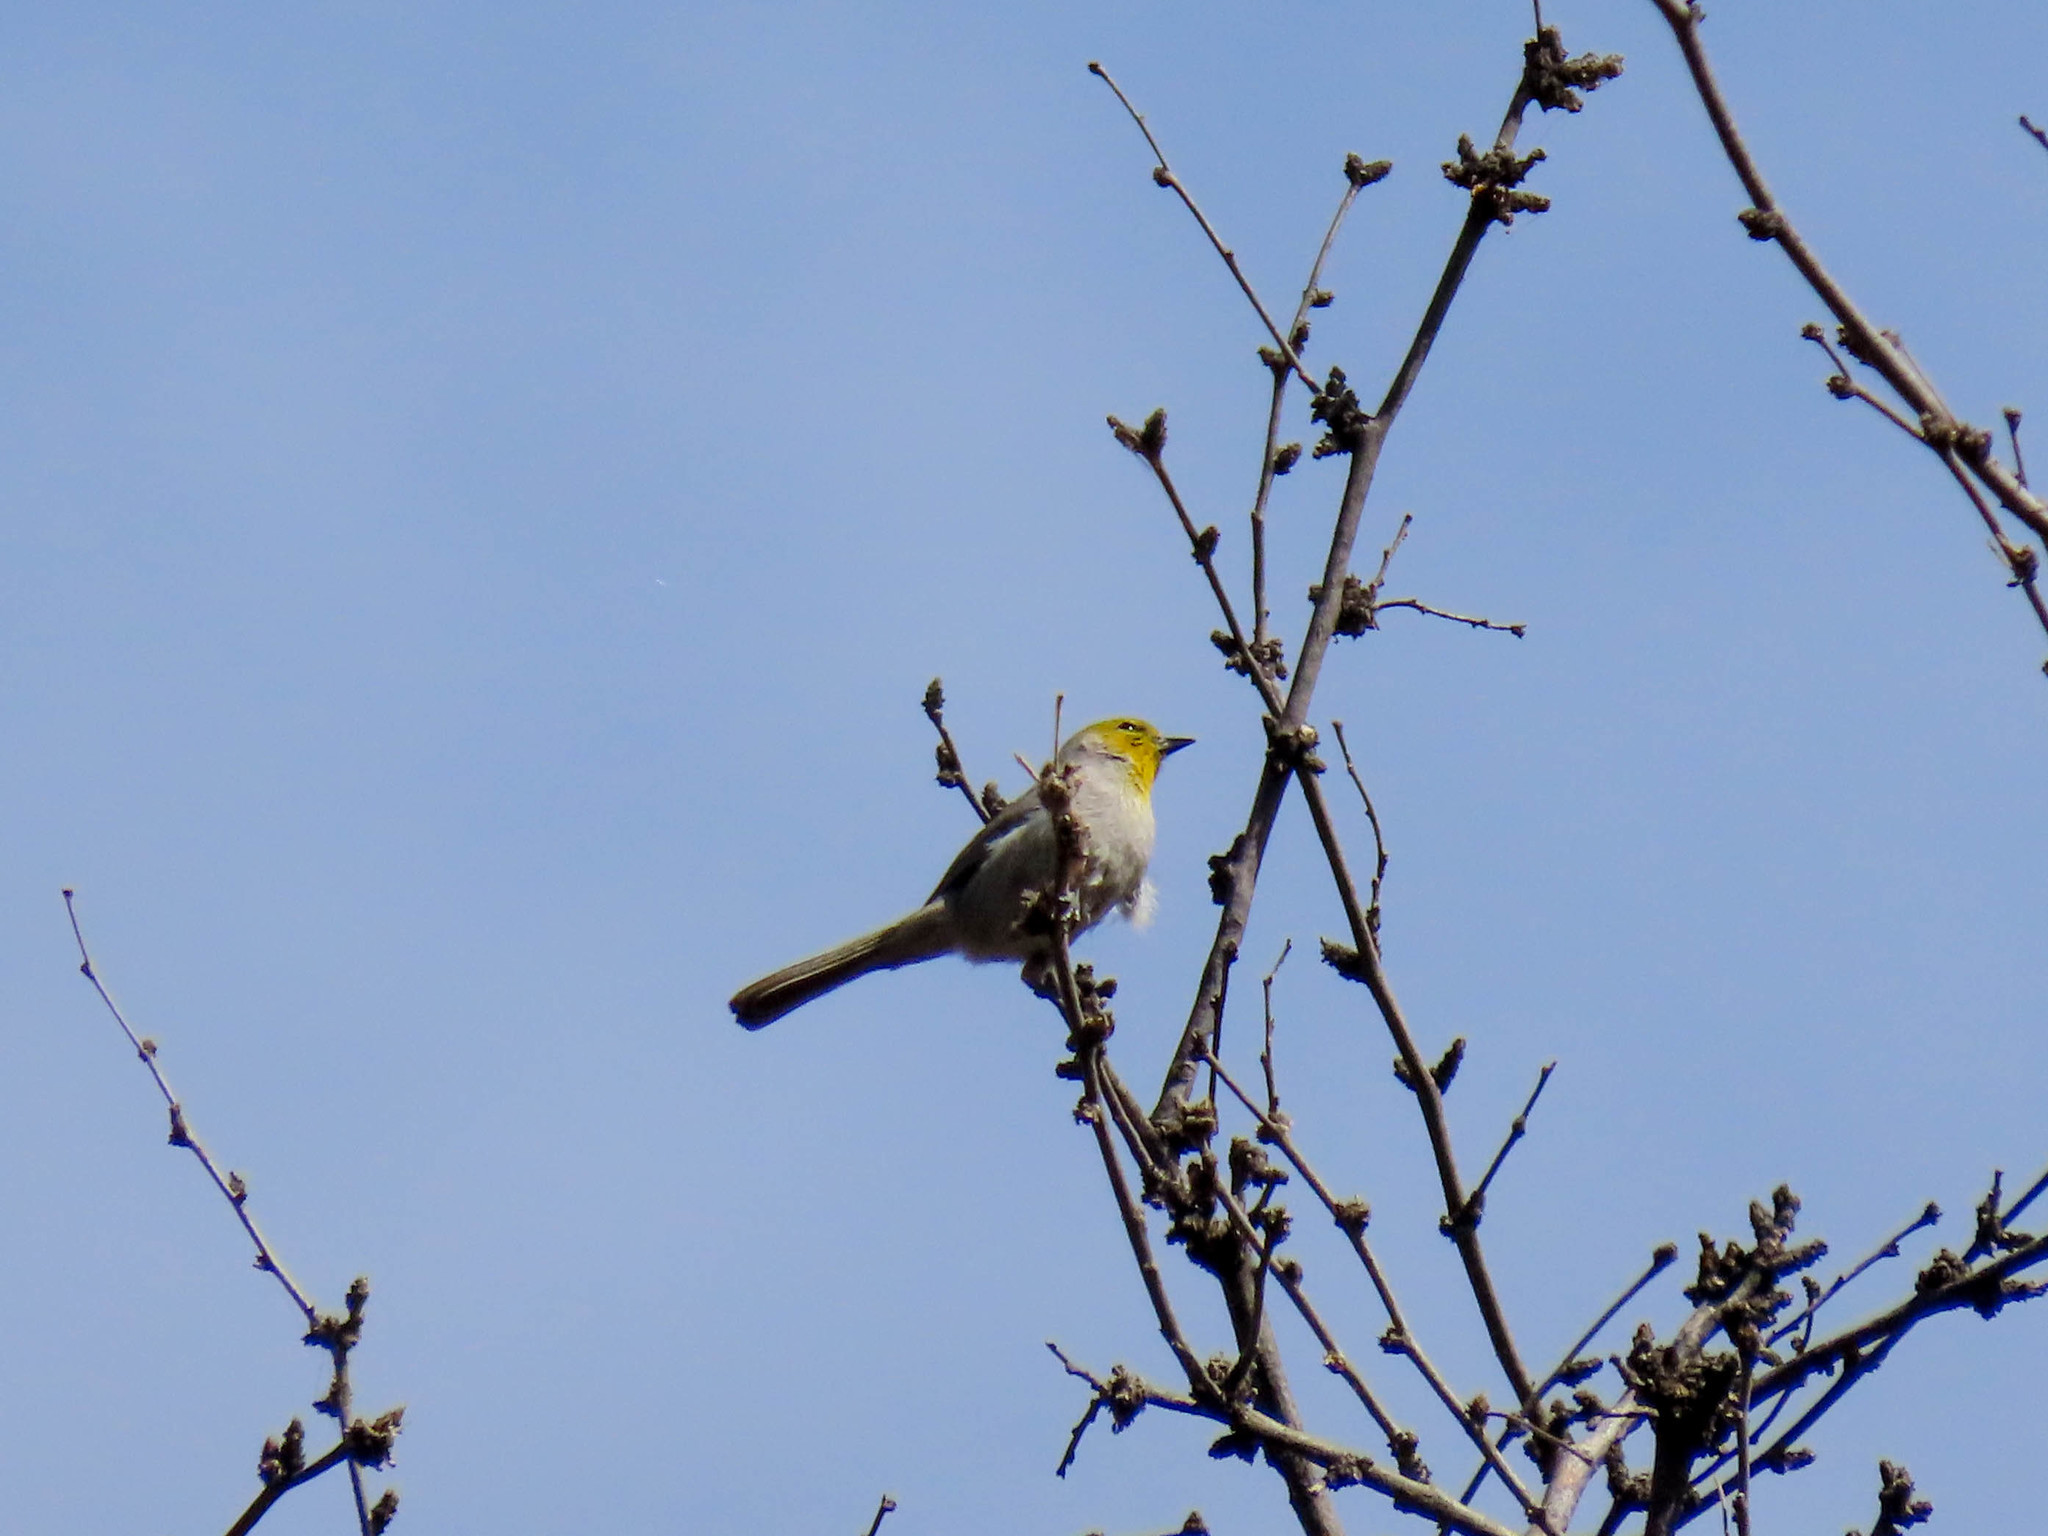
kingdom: Animalia
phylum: Chordata
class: Aves
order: Passeriformes
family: Remizidae
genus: Auriparus
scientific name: Auriparus flaviceps
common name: Verdin
